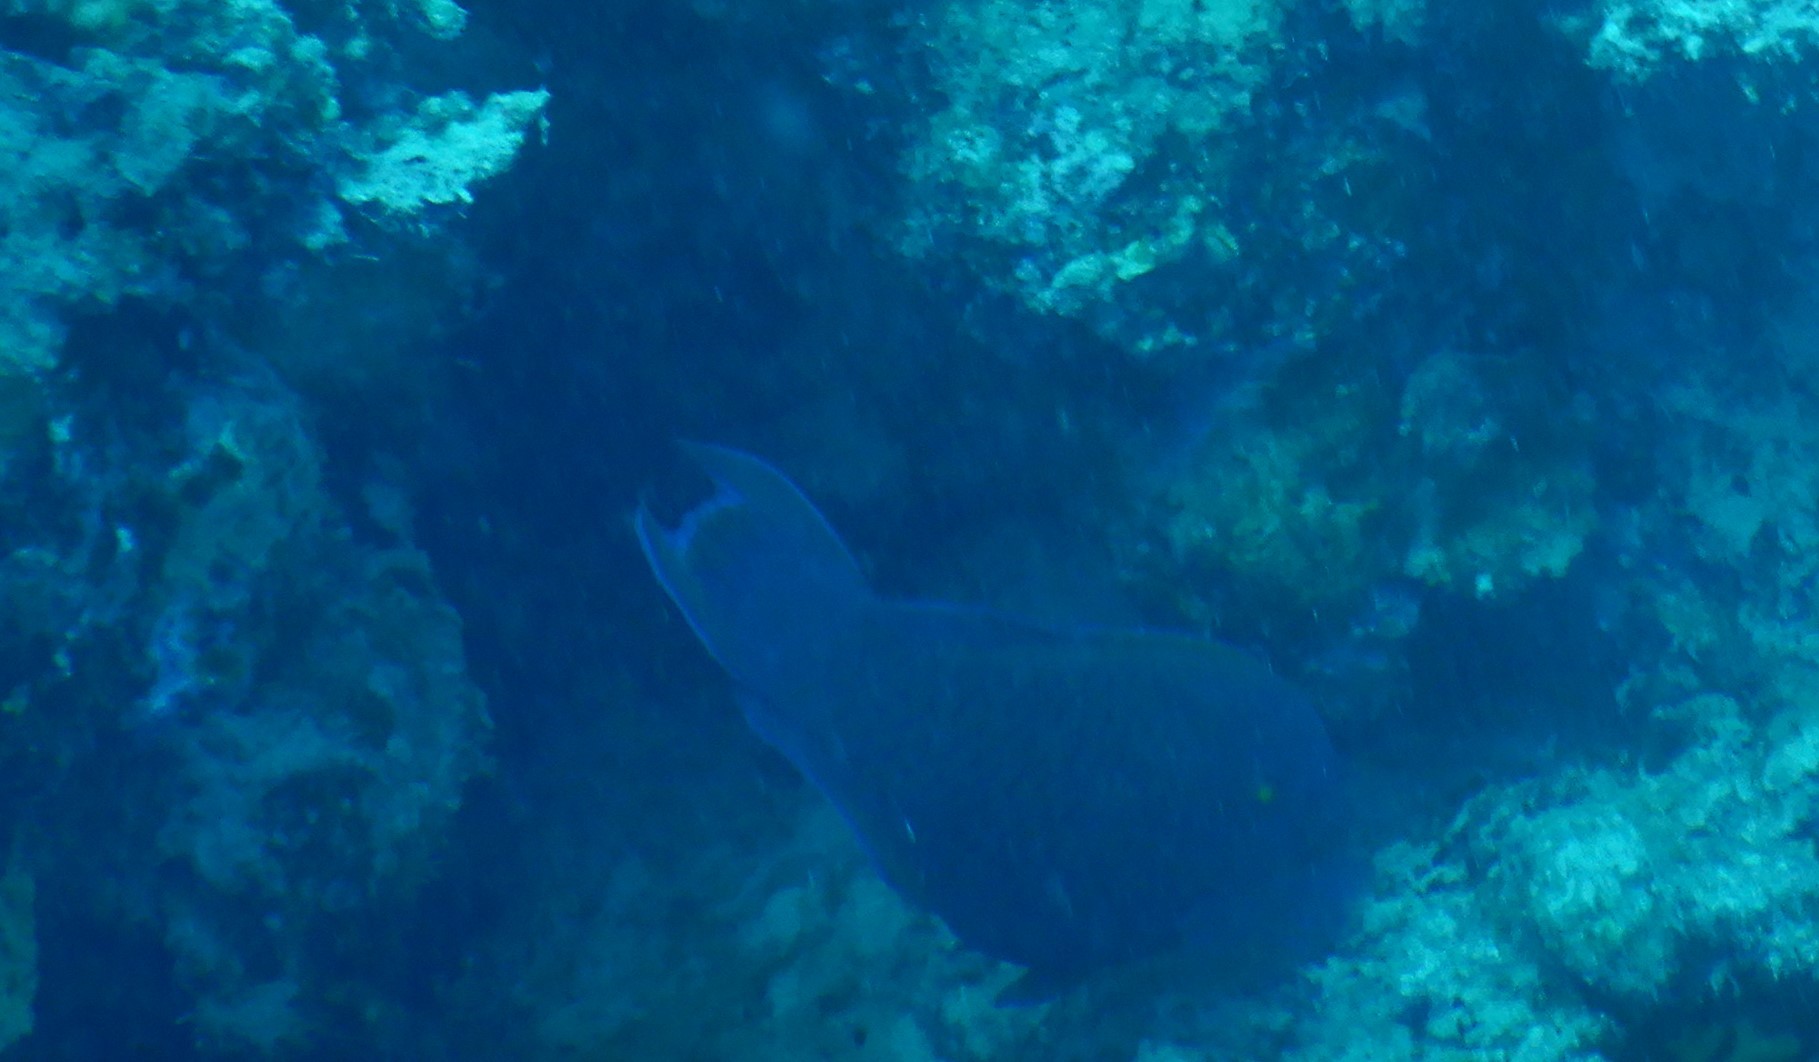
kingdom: Animalia
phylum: Chordata
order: Perciformes
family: Scaridae
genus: Scarus
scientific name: Scarus niger
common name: Dusky parrotfish
